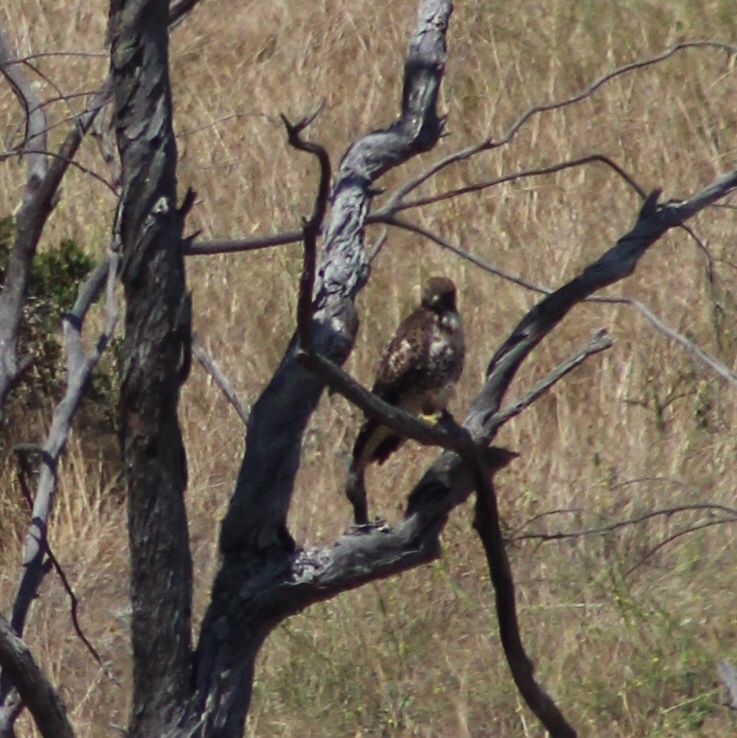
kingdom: Animalia
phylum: Chordata
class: Aves
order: Accipitriformes
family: Accipitridae
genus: Buteo
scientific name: Buteo jamaicensis
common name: Red-tailed hawk
